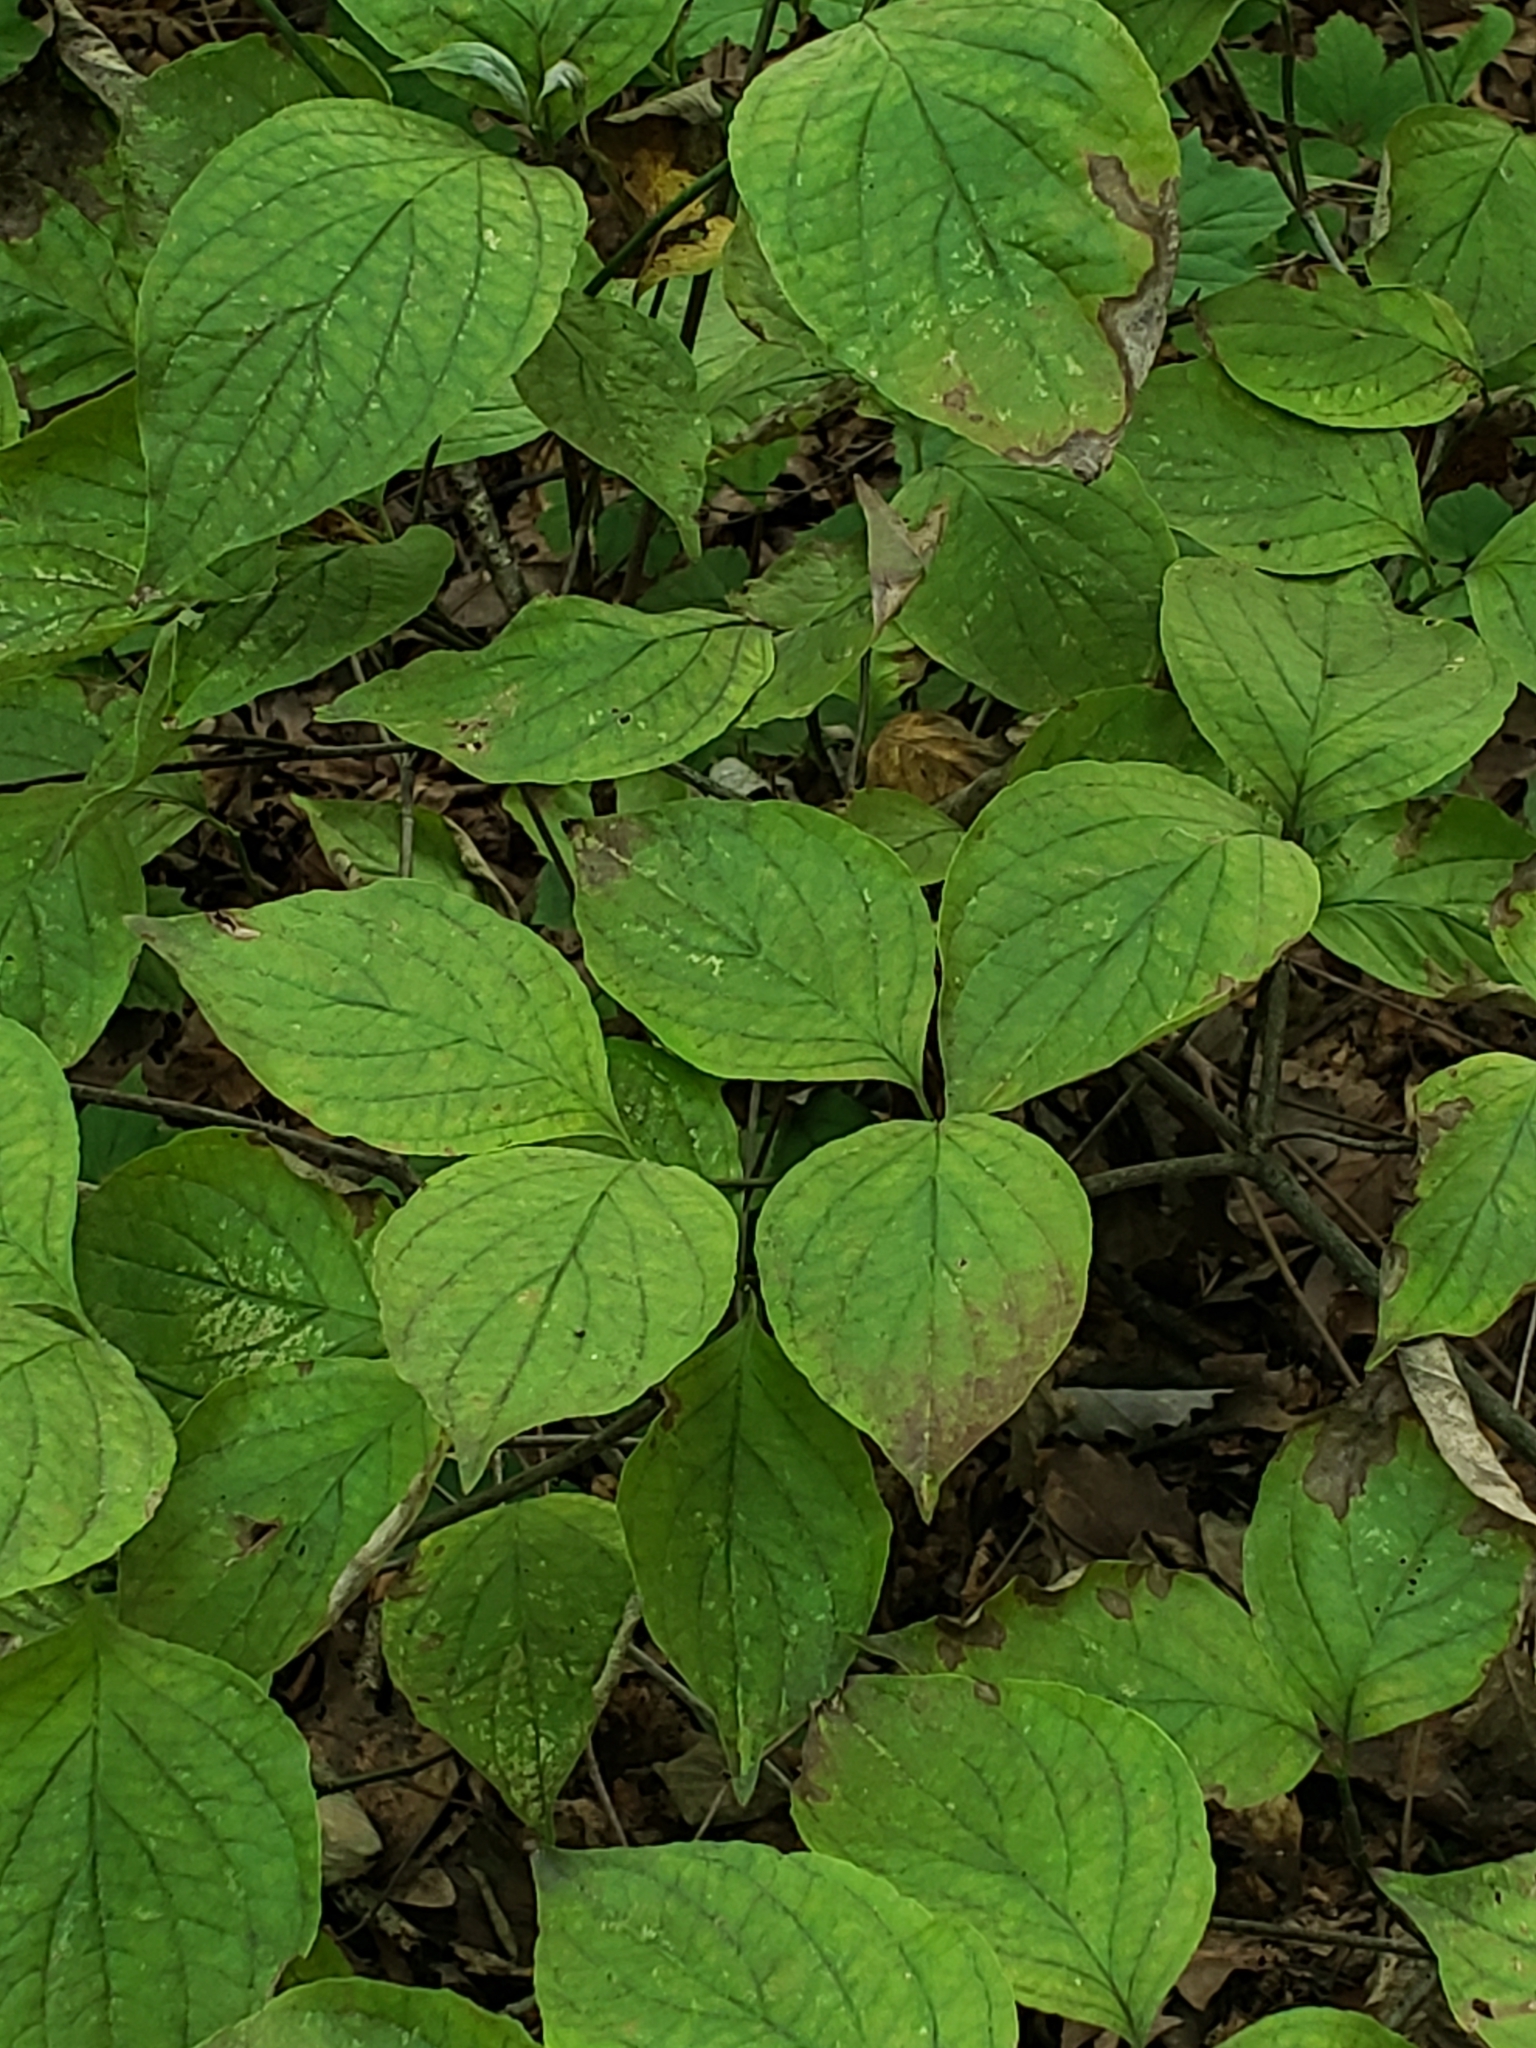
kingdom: Plantae
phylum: Tracheophyta
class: Magnoliopsida
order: Cornales
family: Cornaceae
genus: Cornus
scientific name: Cornus florida
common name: Flowering dogwood
